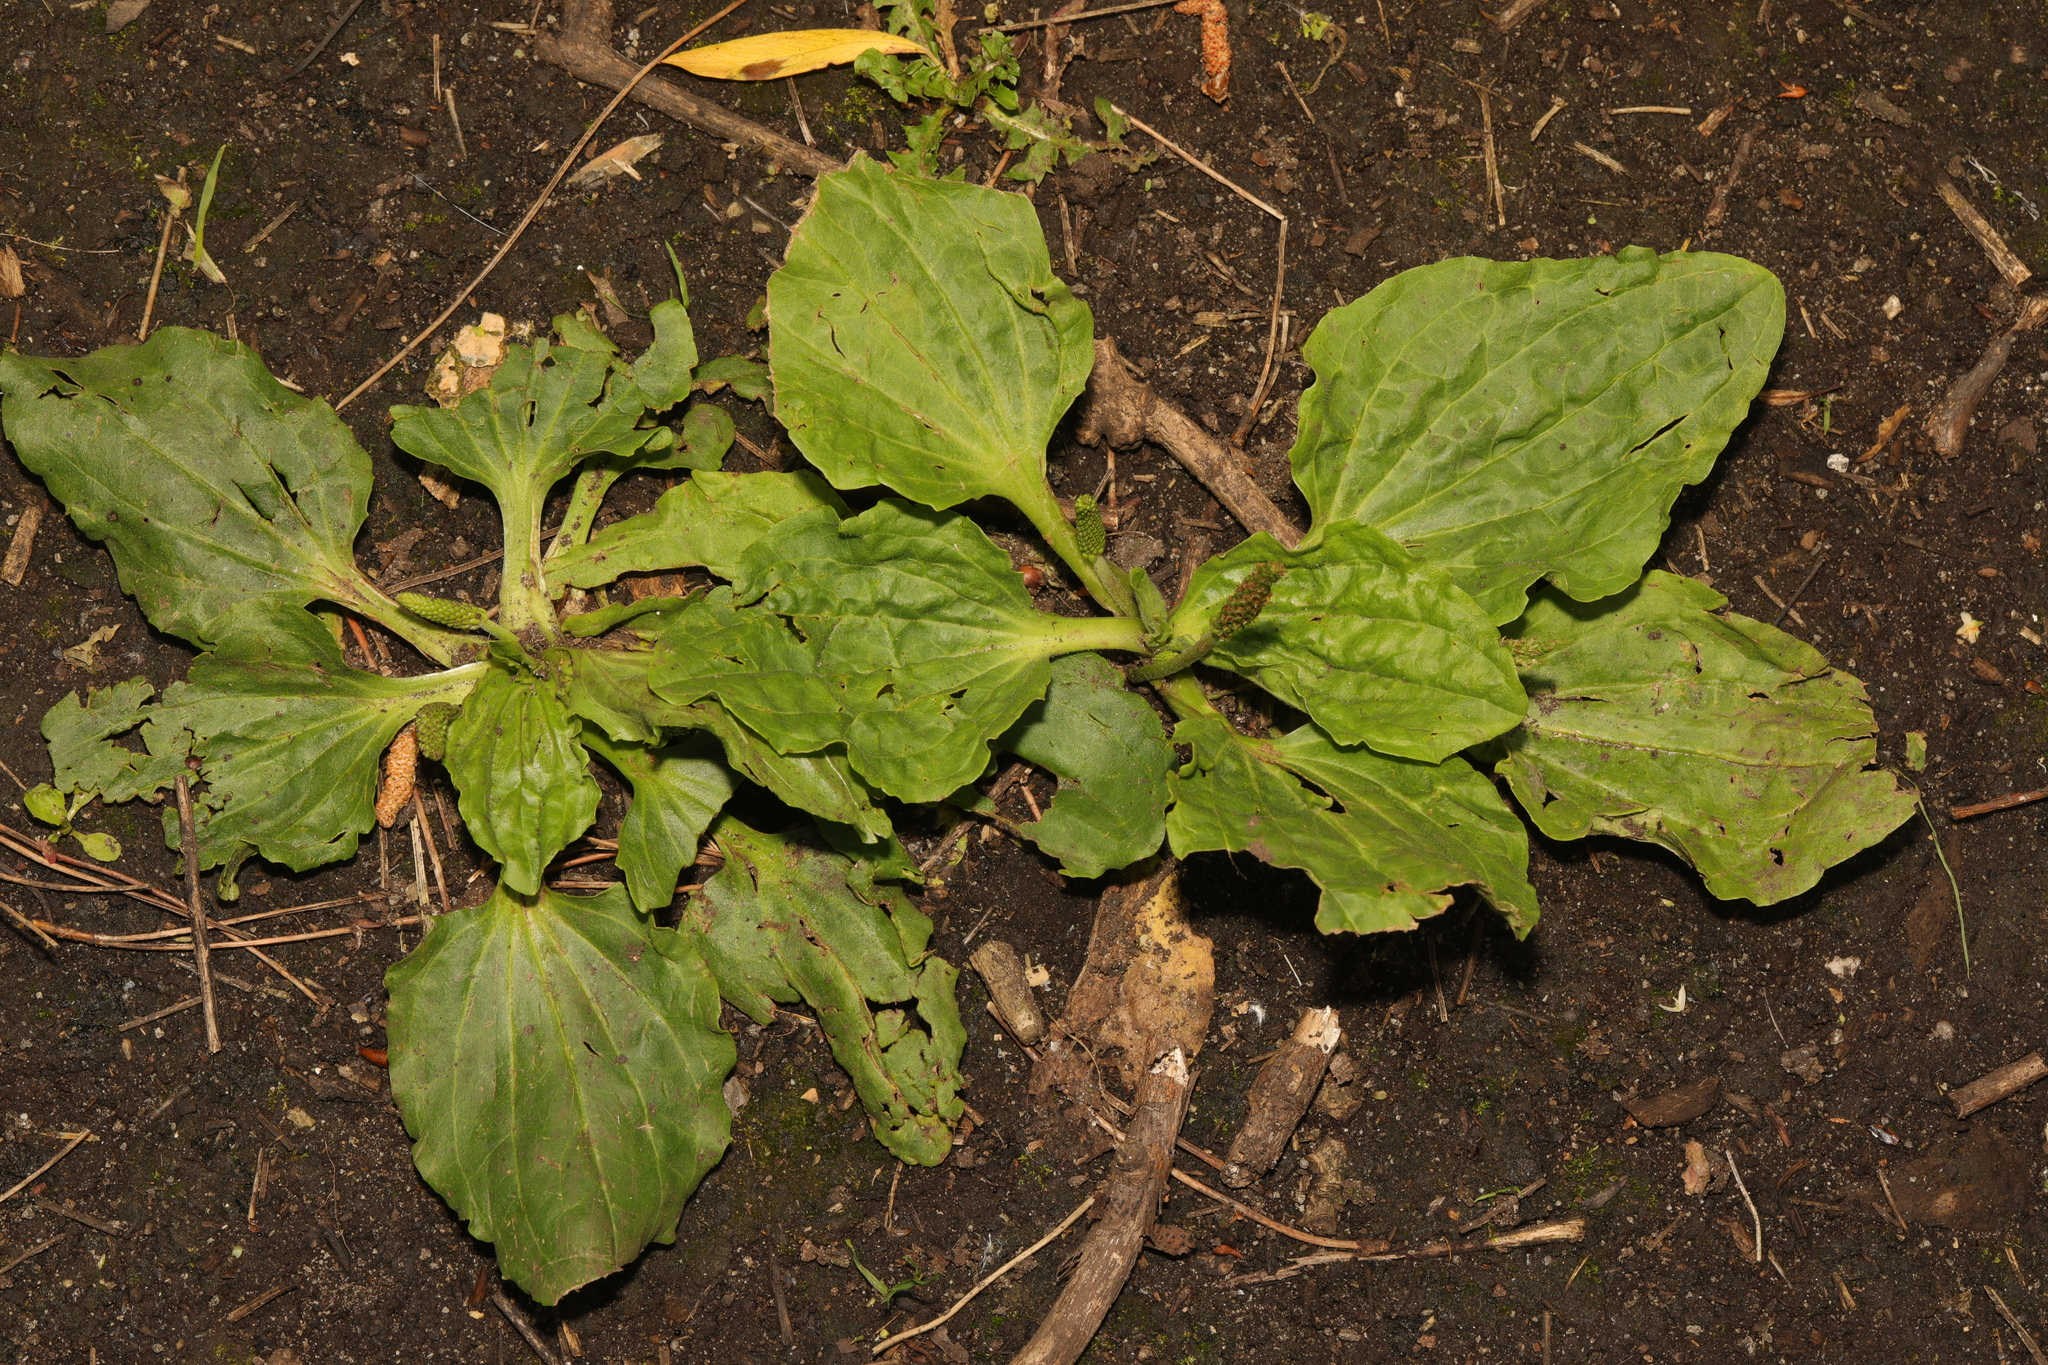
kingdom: Plantae
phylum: Tracheophyta
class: Magnoliopsida
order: Lamiales
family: Plantaginaceae
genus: Plantago
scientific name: Plantago major
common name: Common plantain
